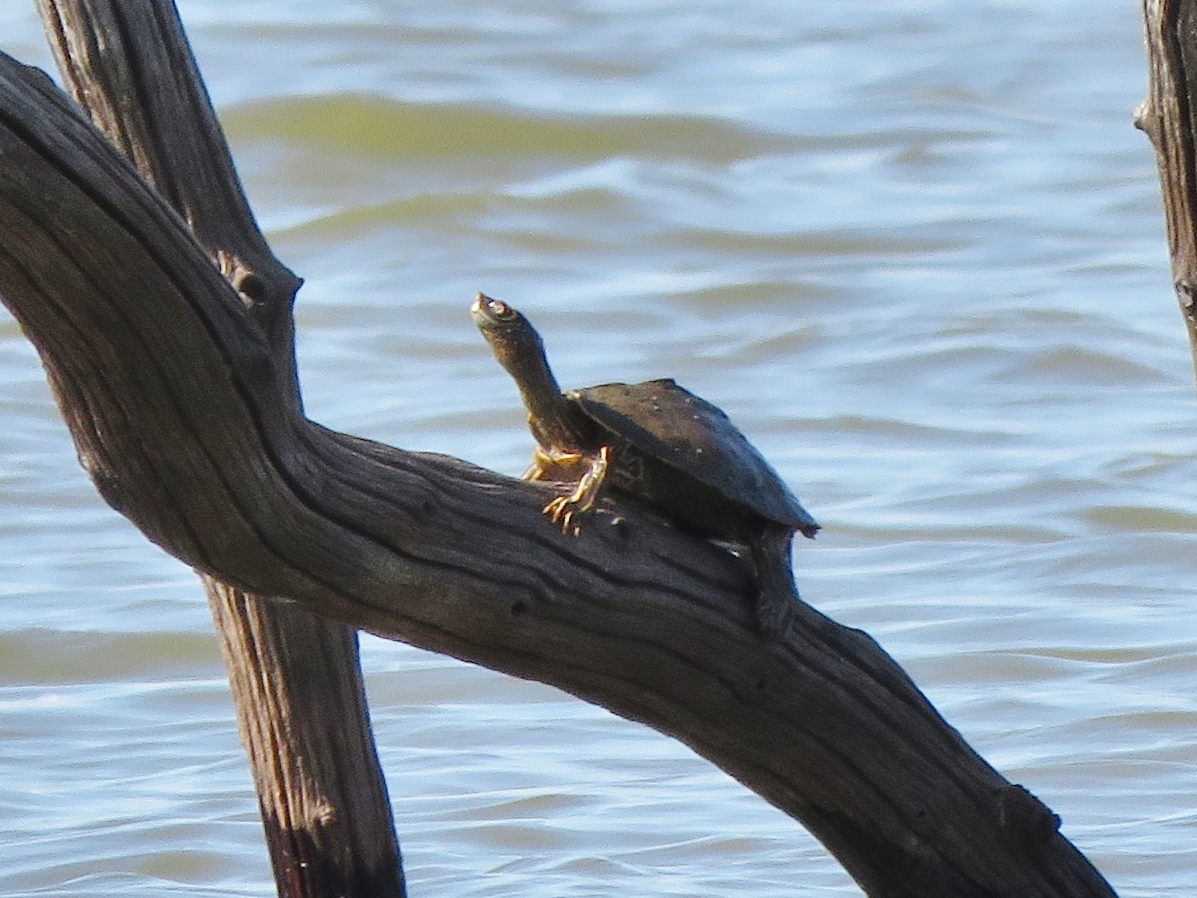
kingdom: Animalia
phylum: Chordata
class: Testudines
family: Emydidae
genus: Graptemys
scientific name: Graptemys pseudogeographica
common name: False map turtle
